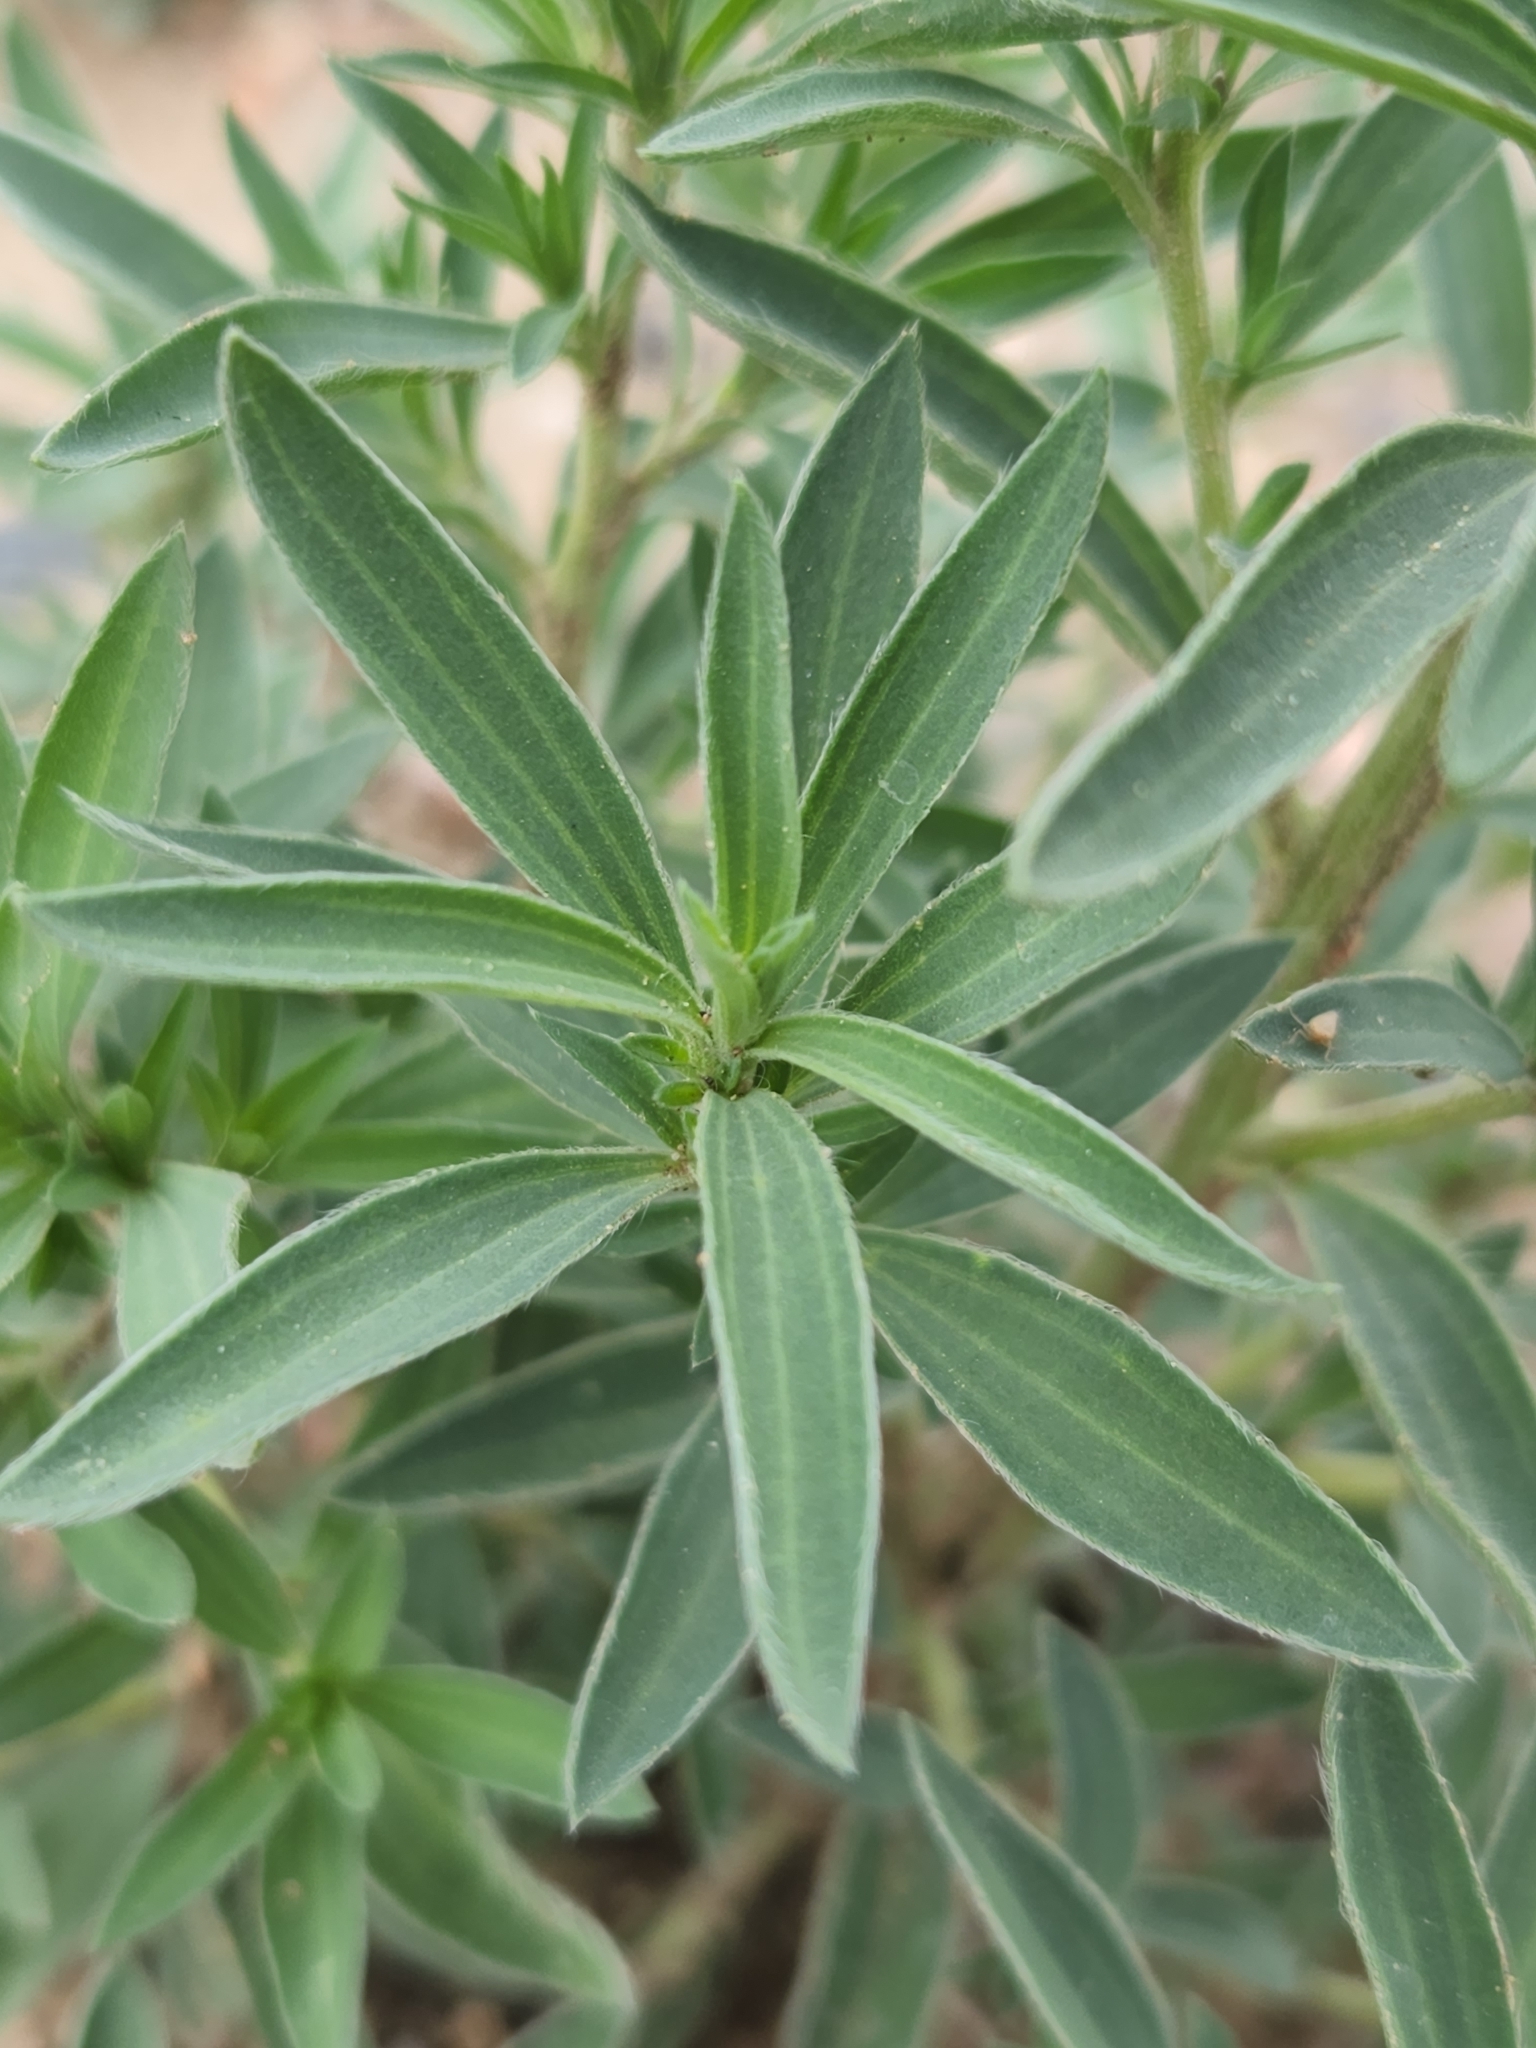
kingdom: Plantae
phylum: Tracheophyta
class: Magnoliopsida
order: Caryophyllales
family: Amaranthaceae
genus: Bassia
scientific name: Bassia scoparia
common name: Belvedere
